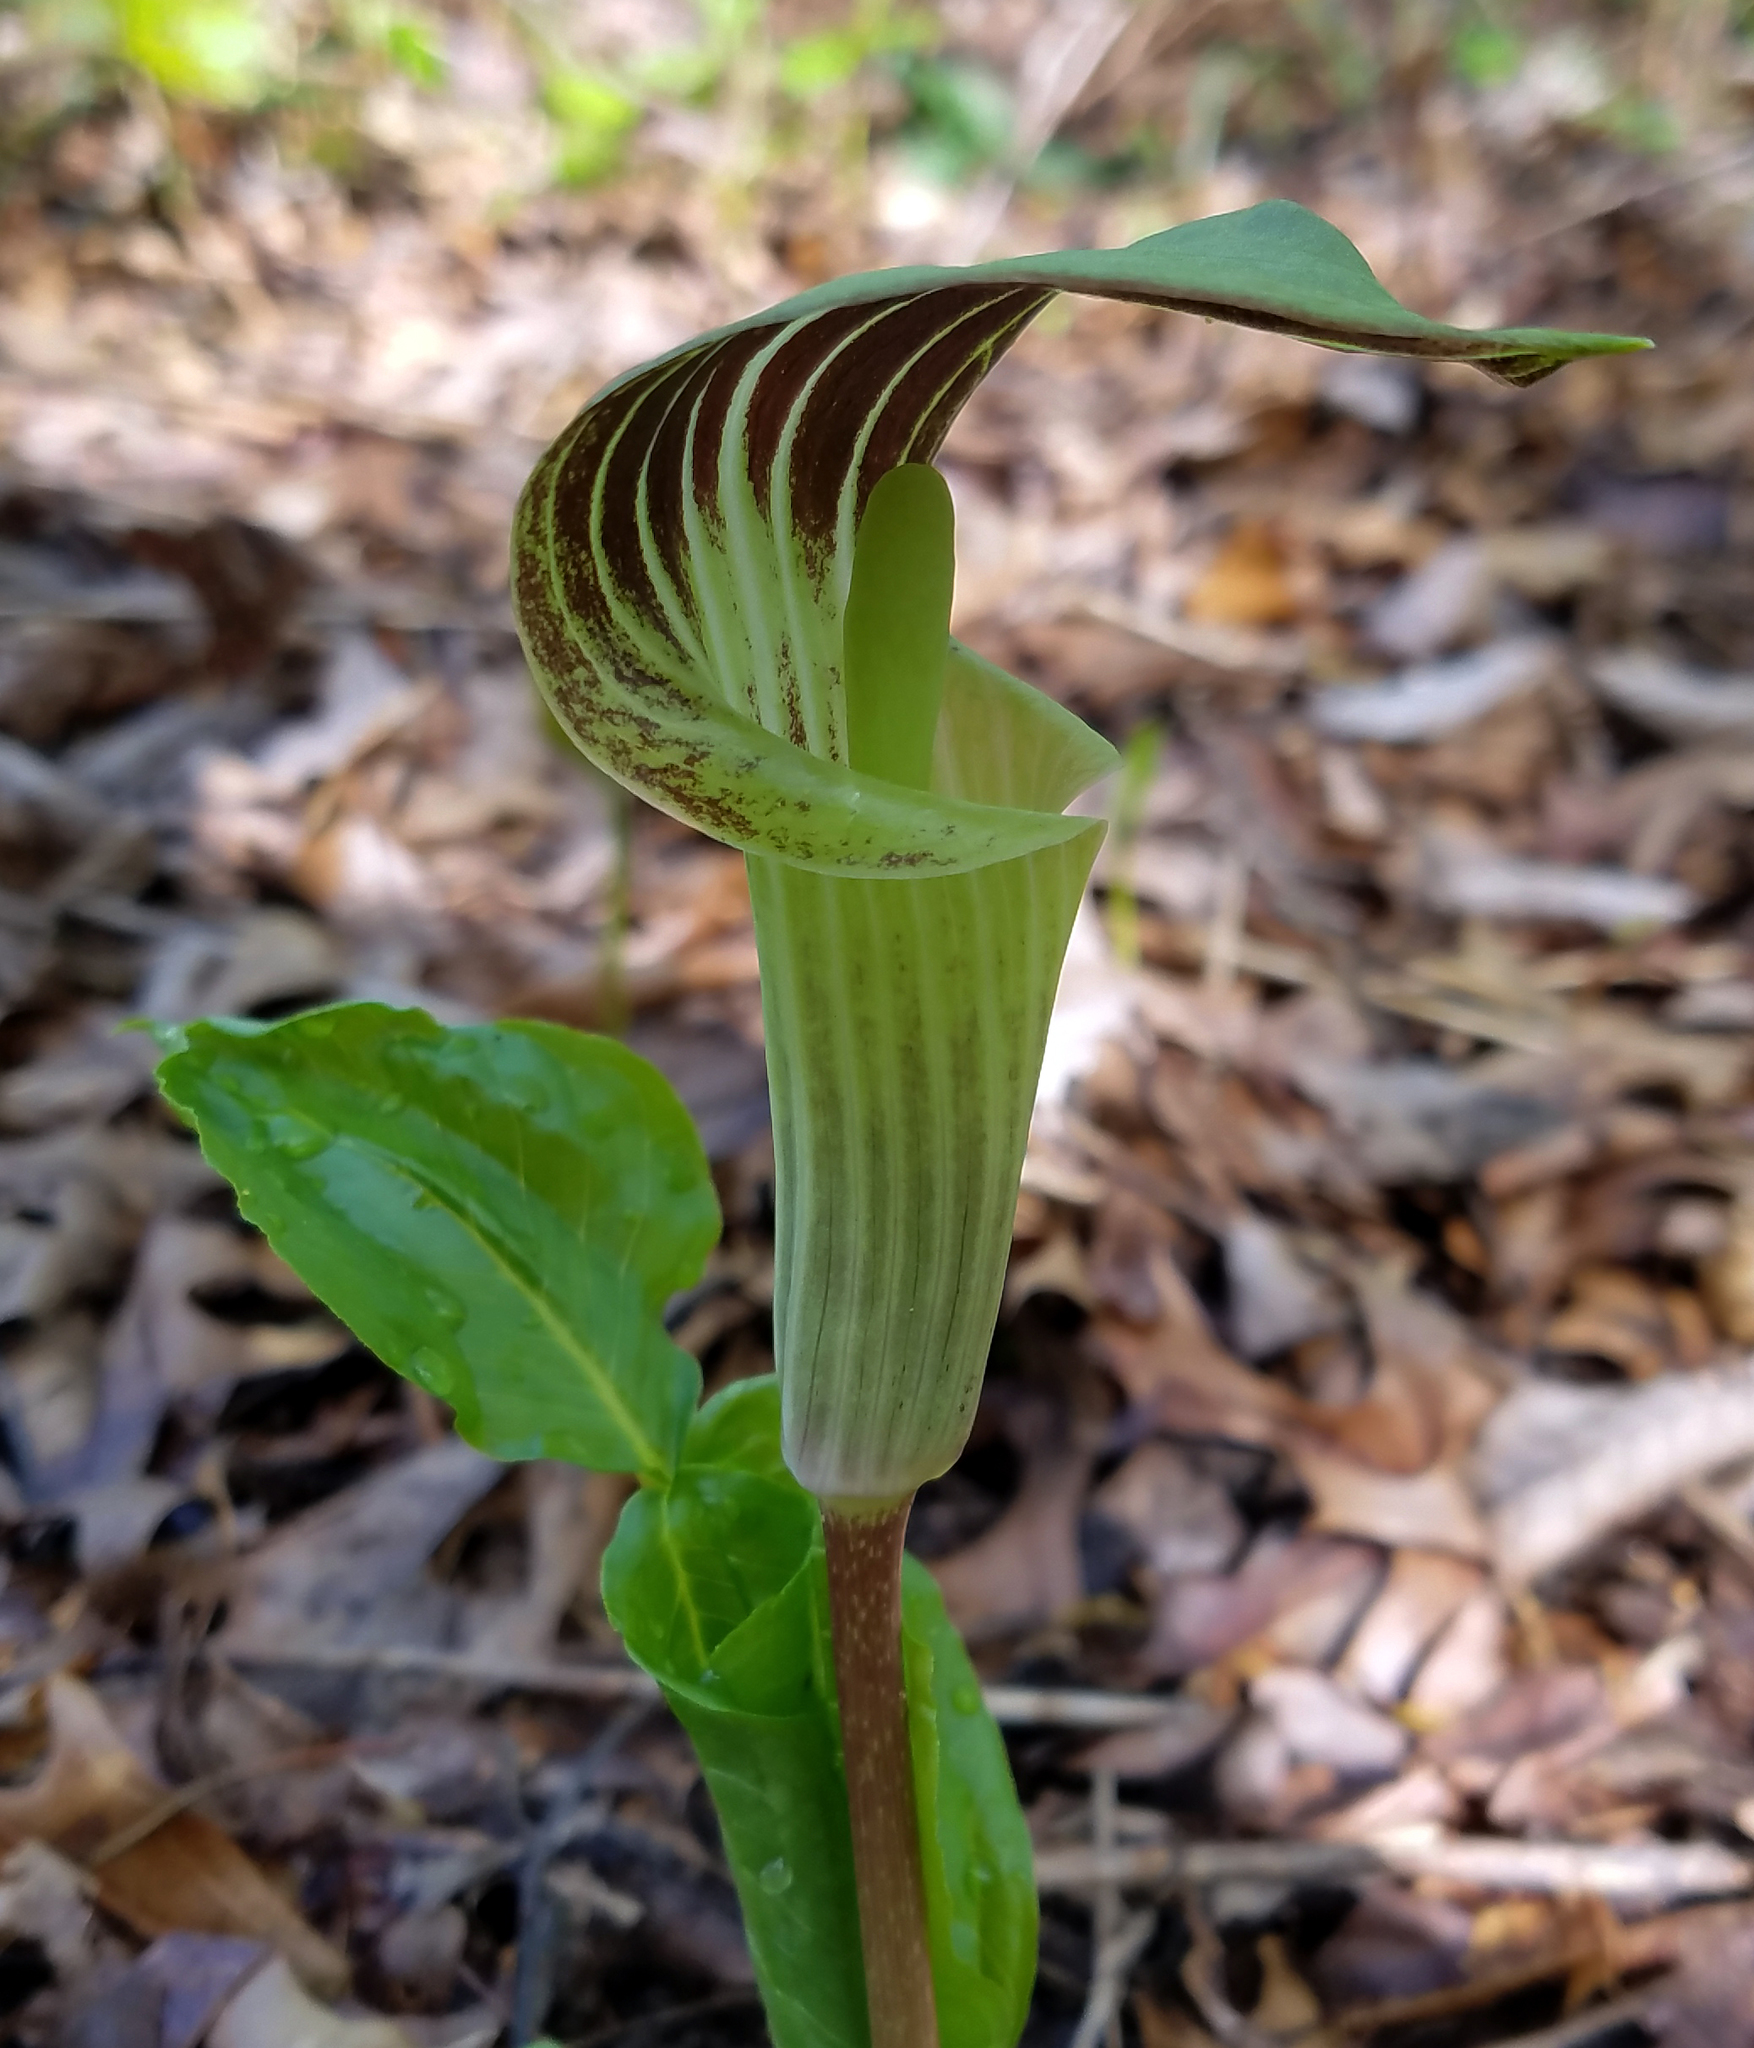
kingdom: Plantae
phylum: Tracheophyta
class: Liliopsida
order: Alismatales
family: Araceae
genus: Arisaema
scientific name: Arisaema triphyllum
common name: Jack-in-the-pulpit
